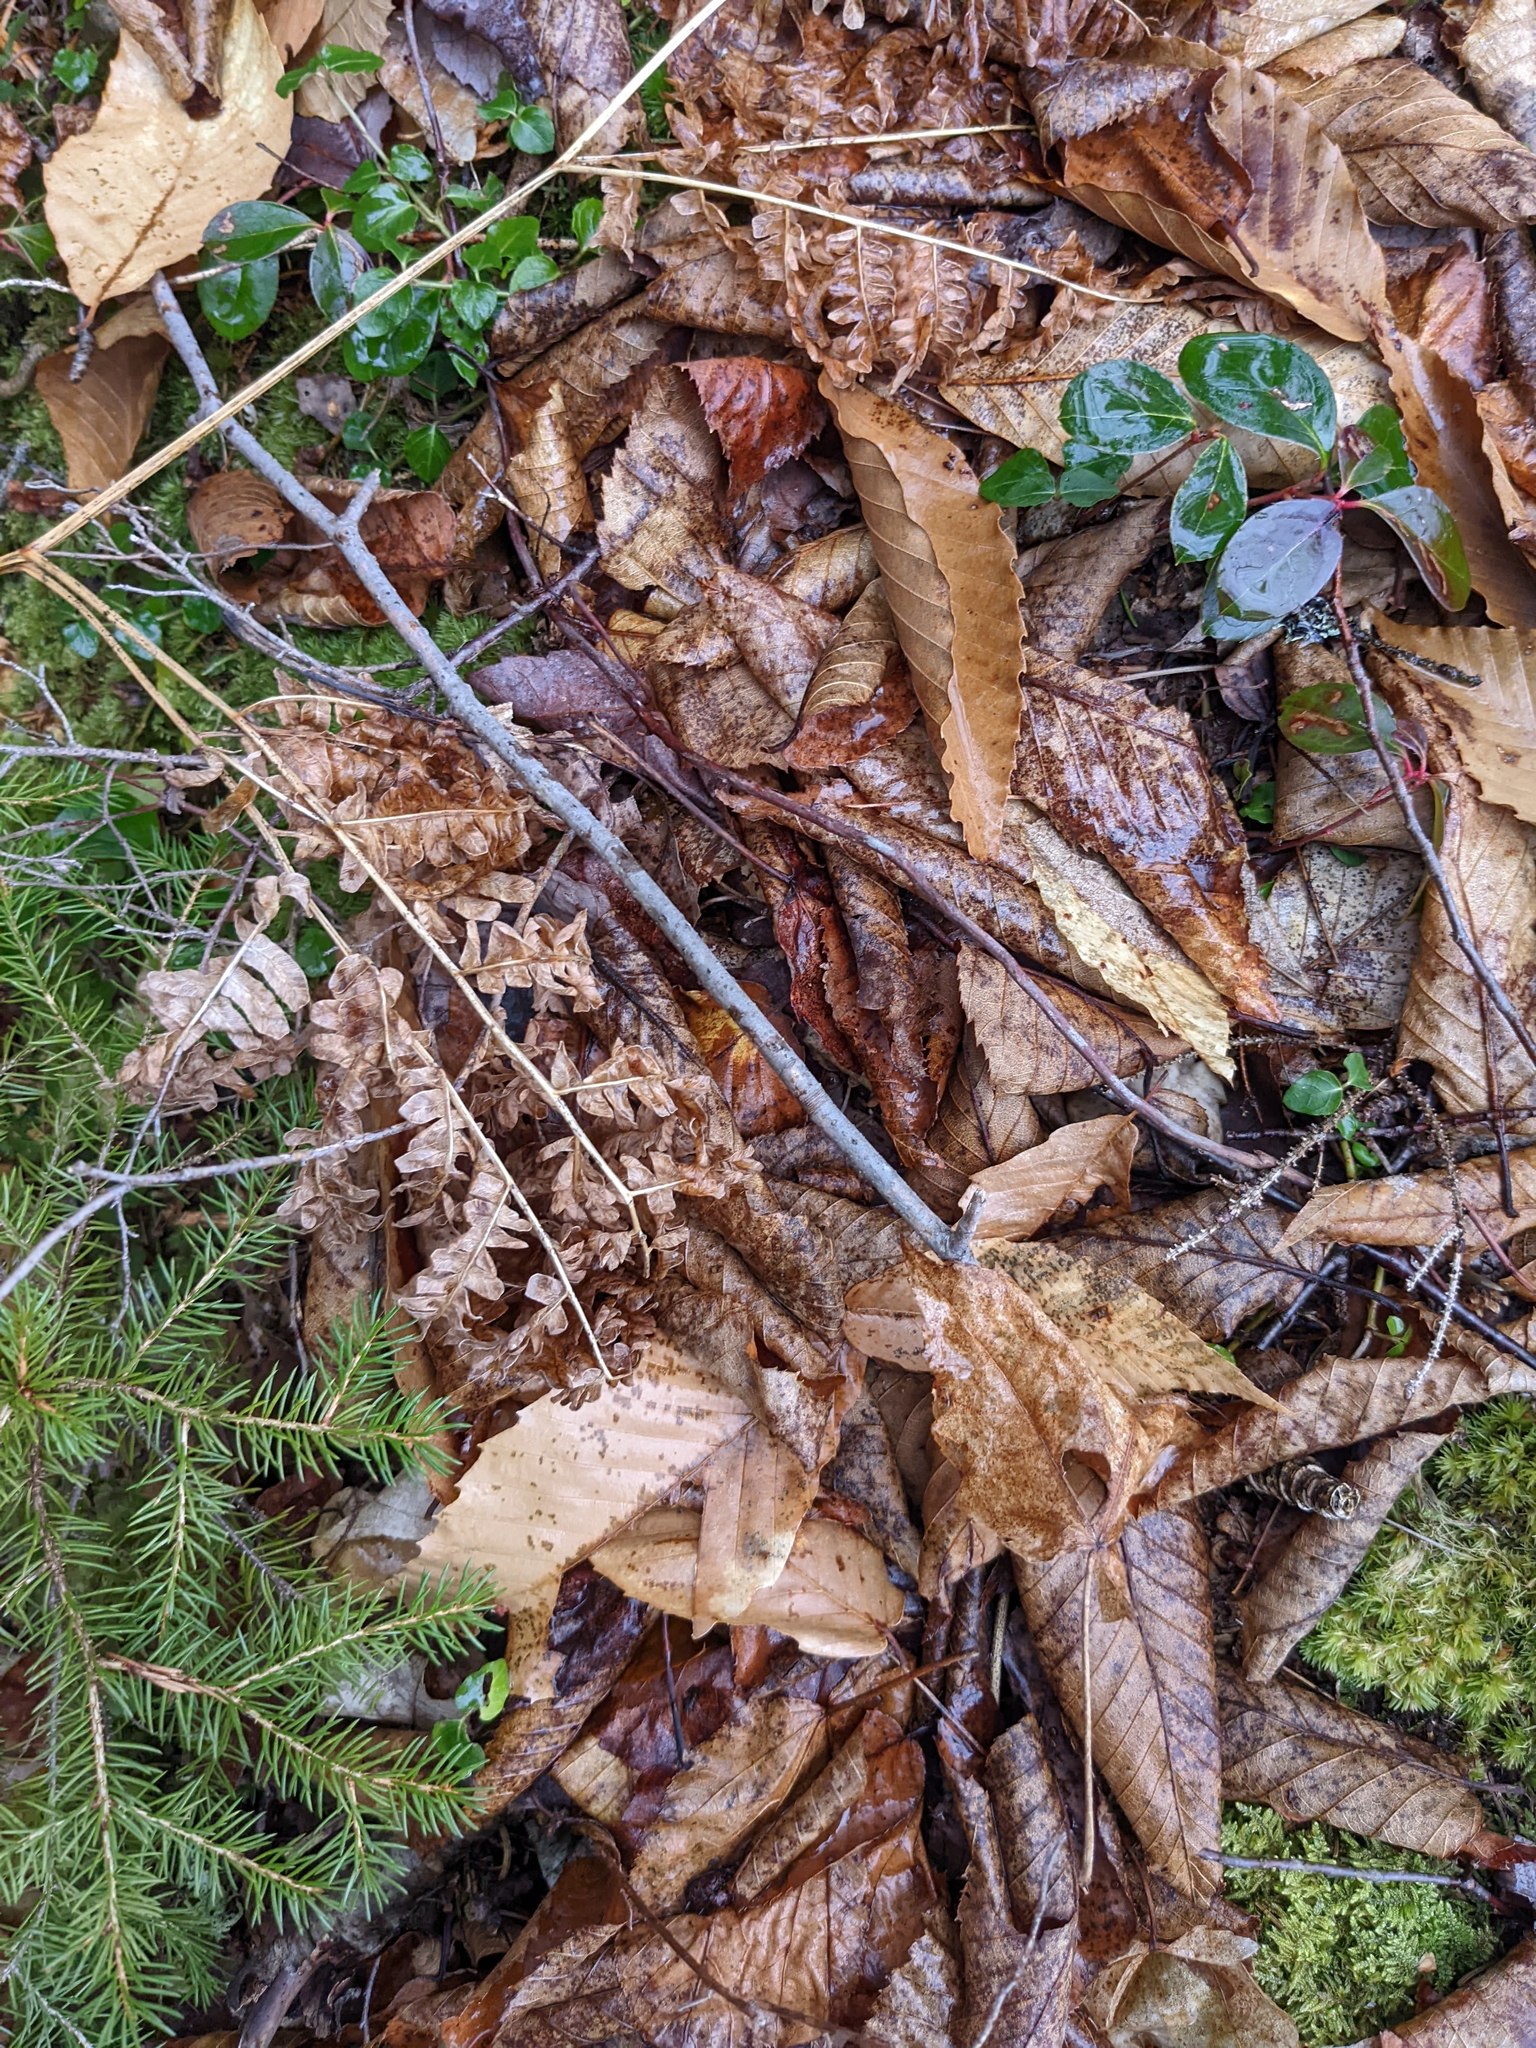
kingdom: Plantae
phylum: Tracheophyta
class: Polypodiopsida
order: Polypodiales
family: Dennstaedtiaceae
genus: Pteridium
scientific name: Pteridium aquilinum
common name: Bracken
